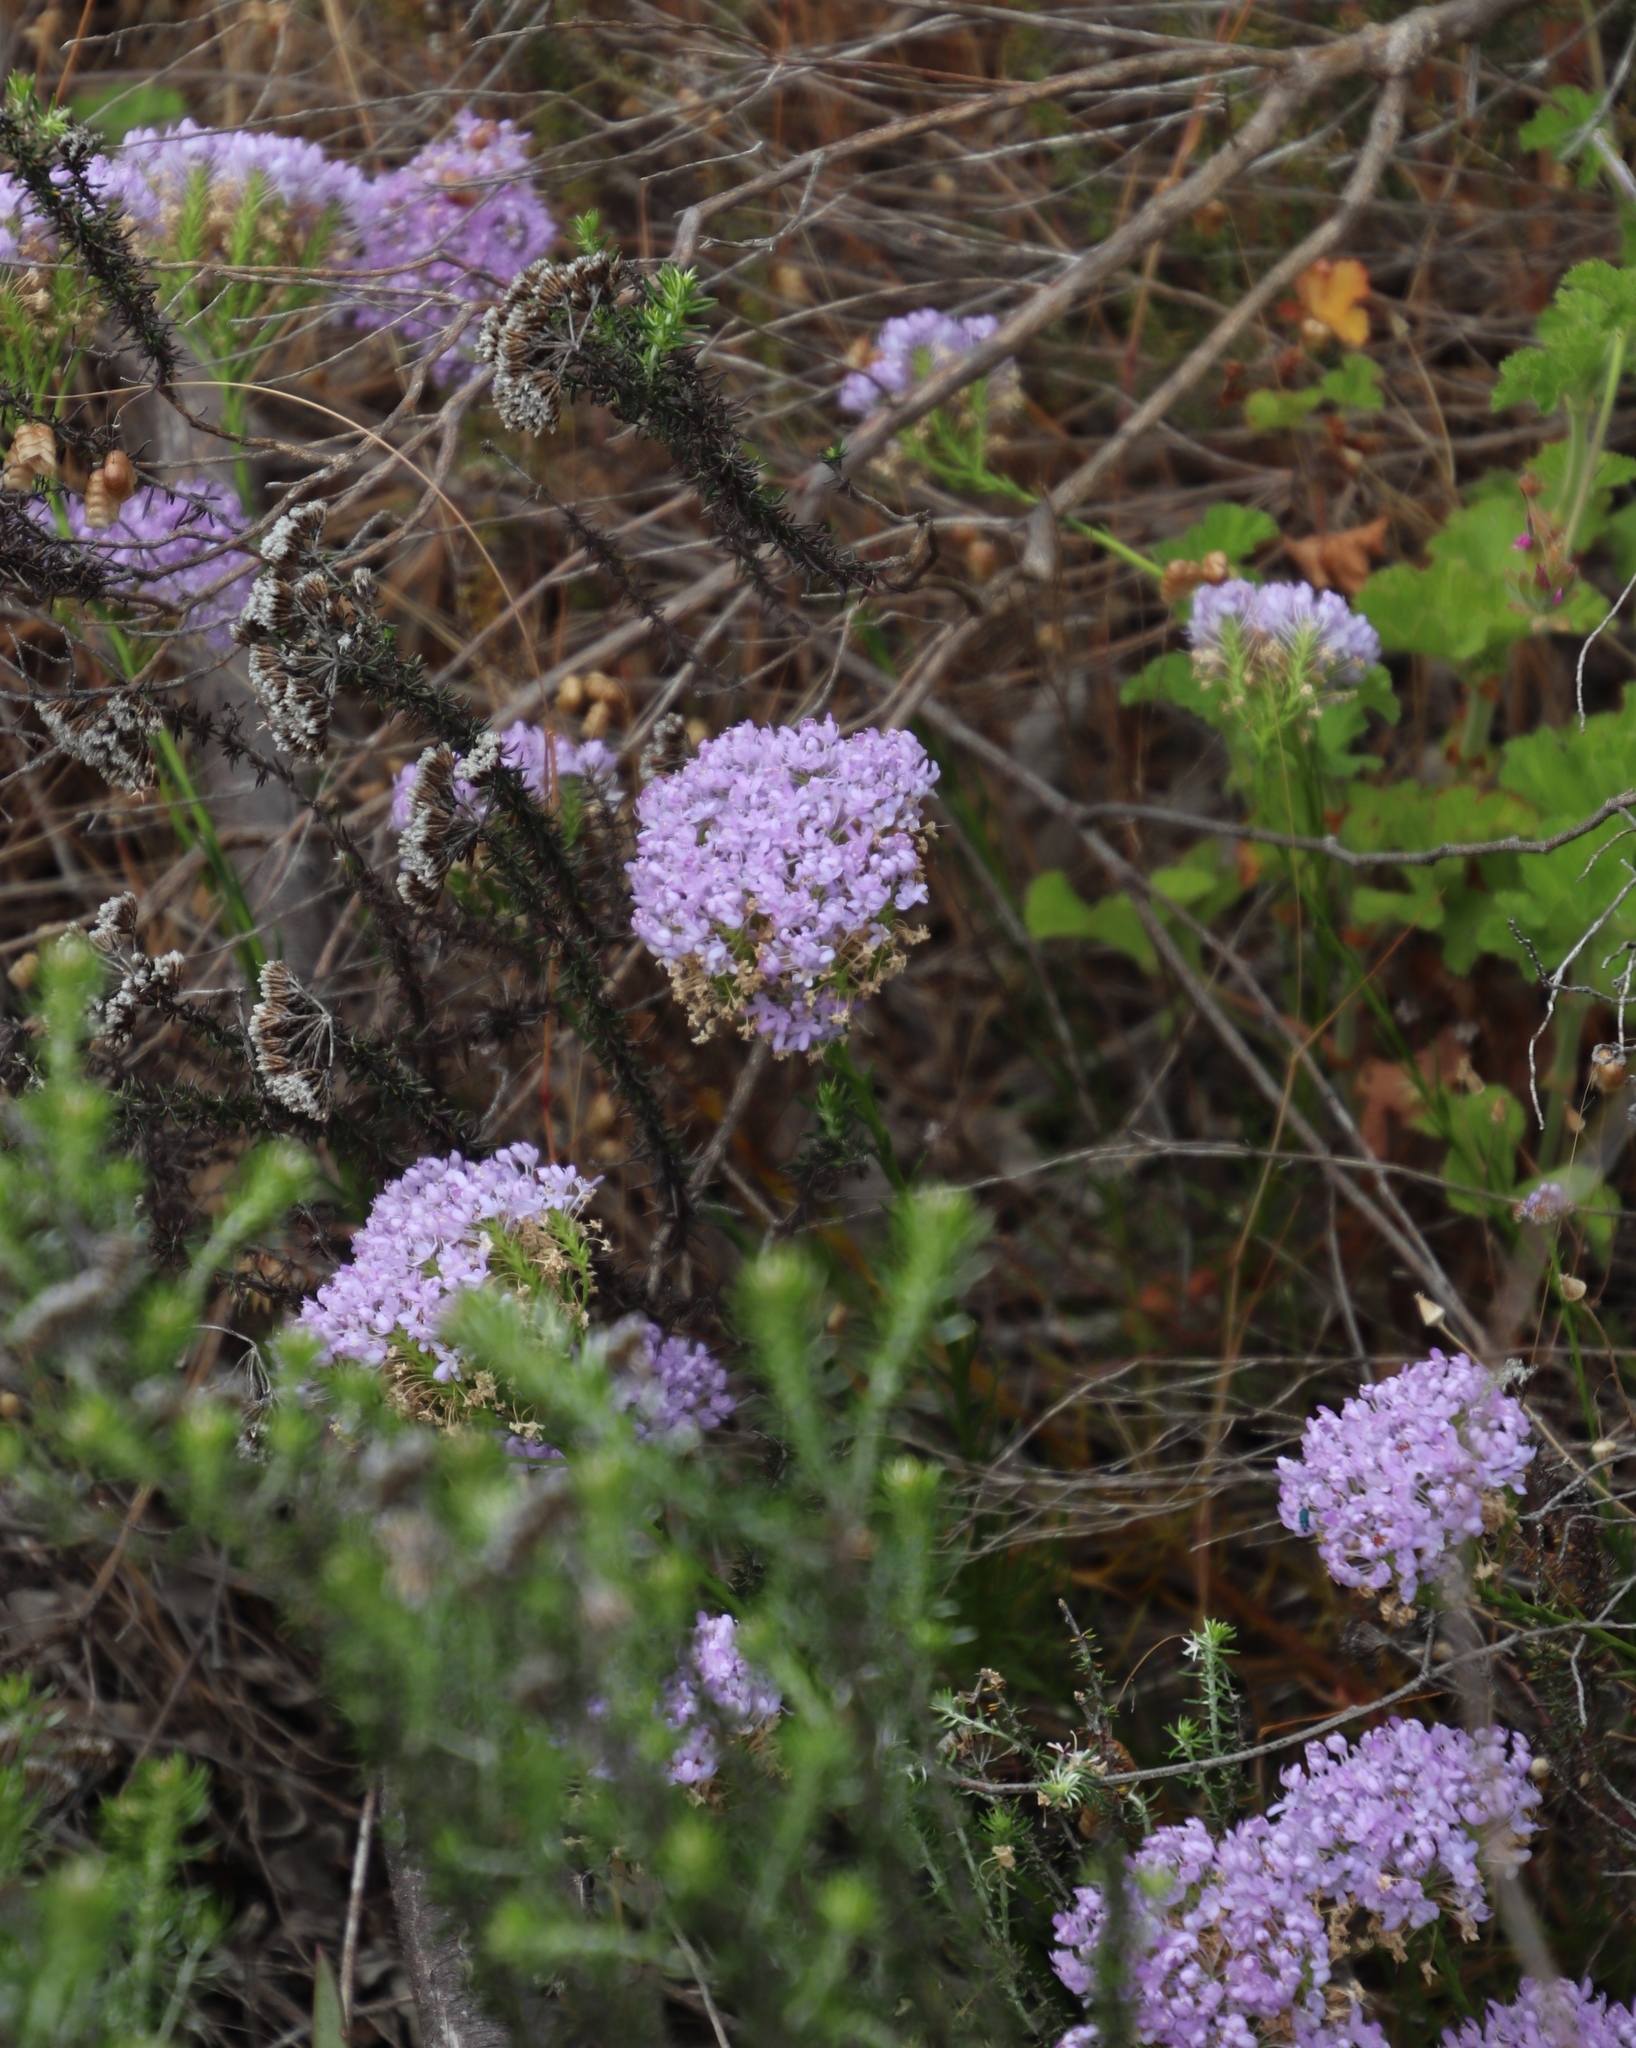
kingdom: Plantae
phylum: Tracheophyta
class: Magnoliopsida
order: Lamiales
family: Scrophulariaceae
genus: Pseudoselago
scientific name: Pseudoselago spuria
